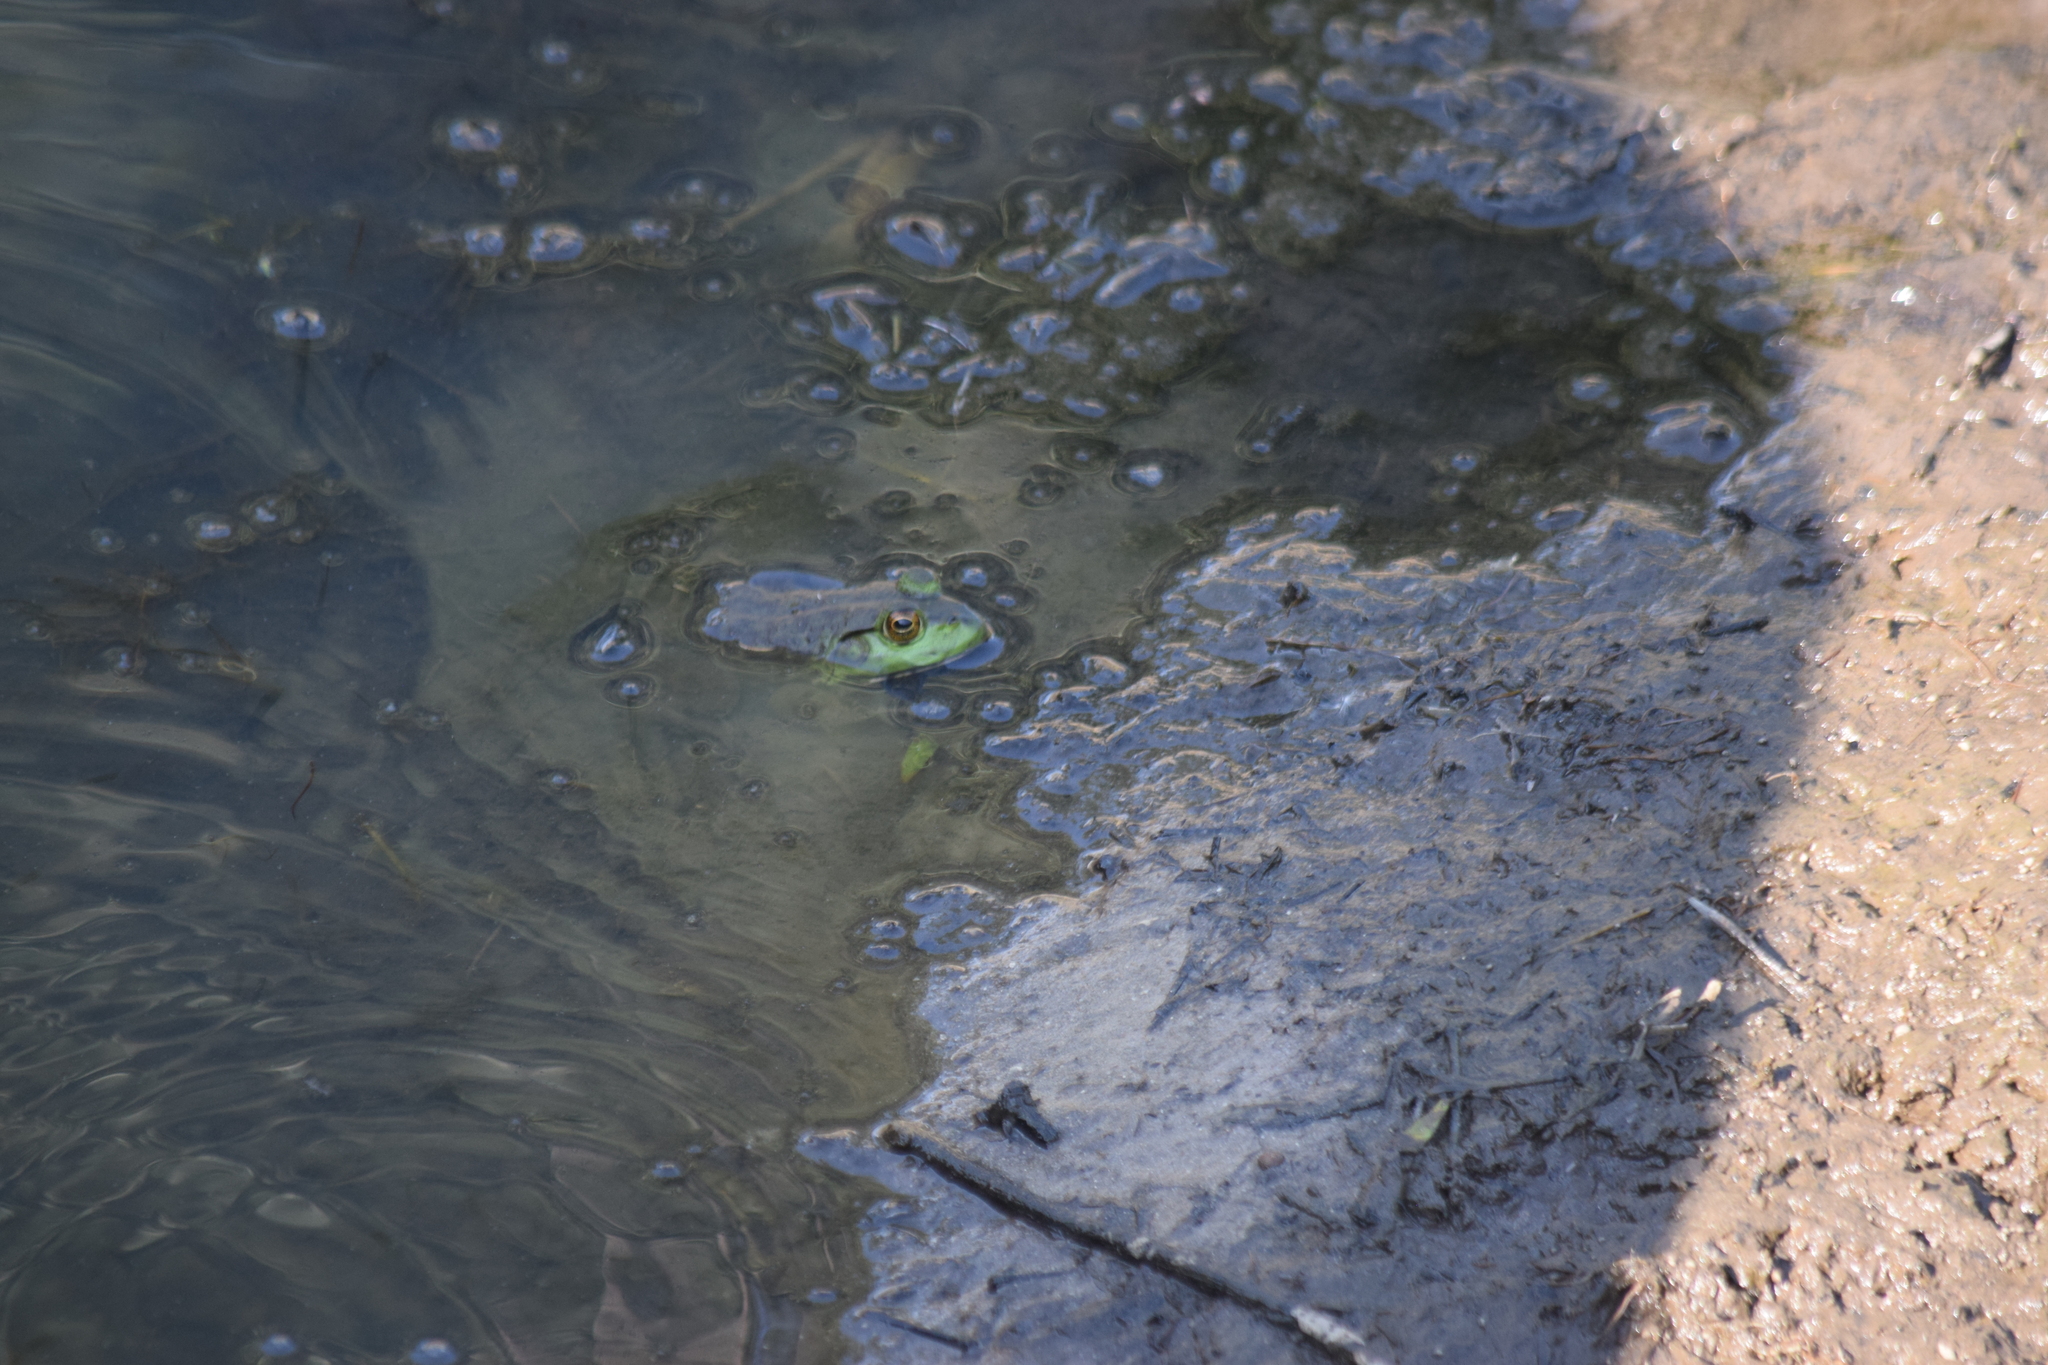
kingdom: Animalia
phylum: Chordata
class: Amphibia
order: Anura
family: Ranidae
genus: Lithobates
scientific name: Lithobates catesbeianus
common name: American bullfrog
